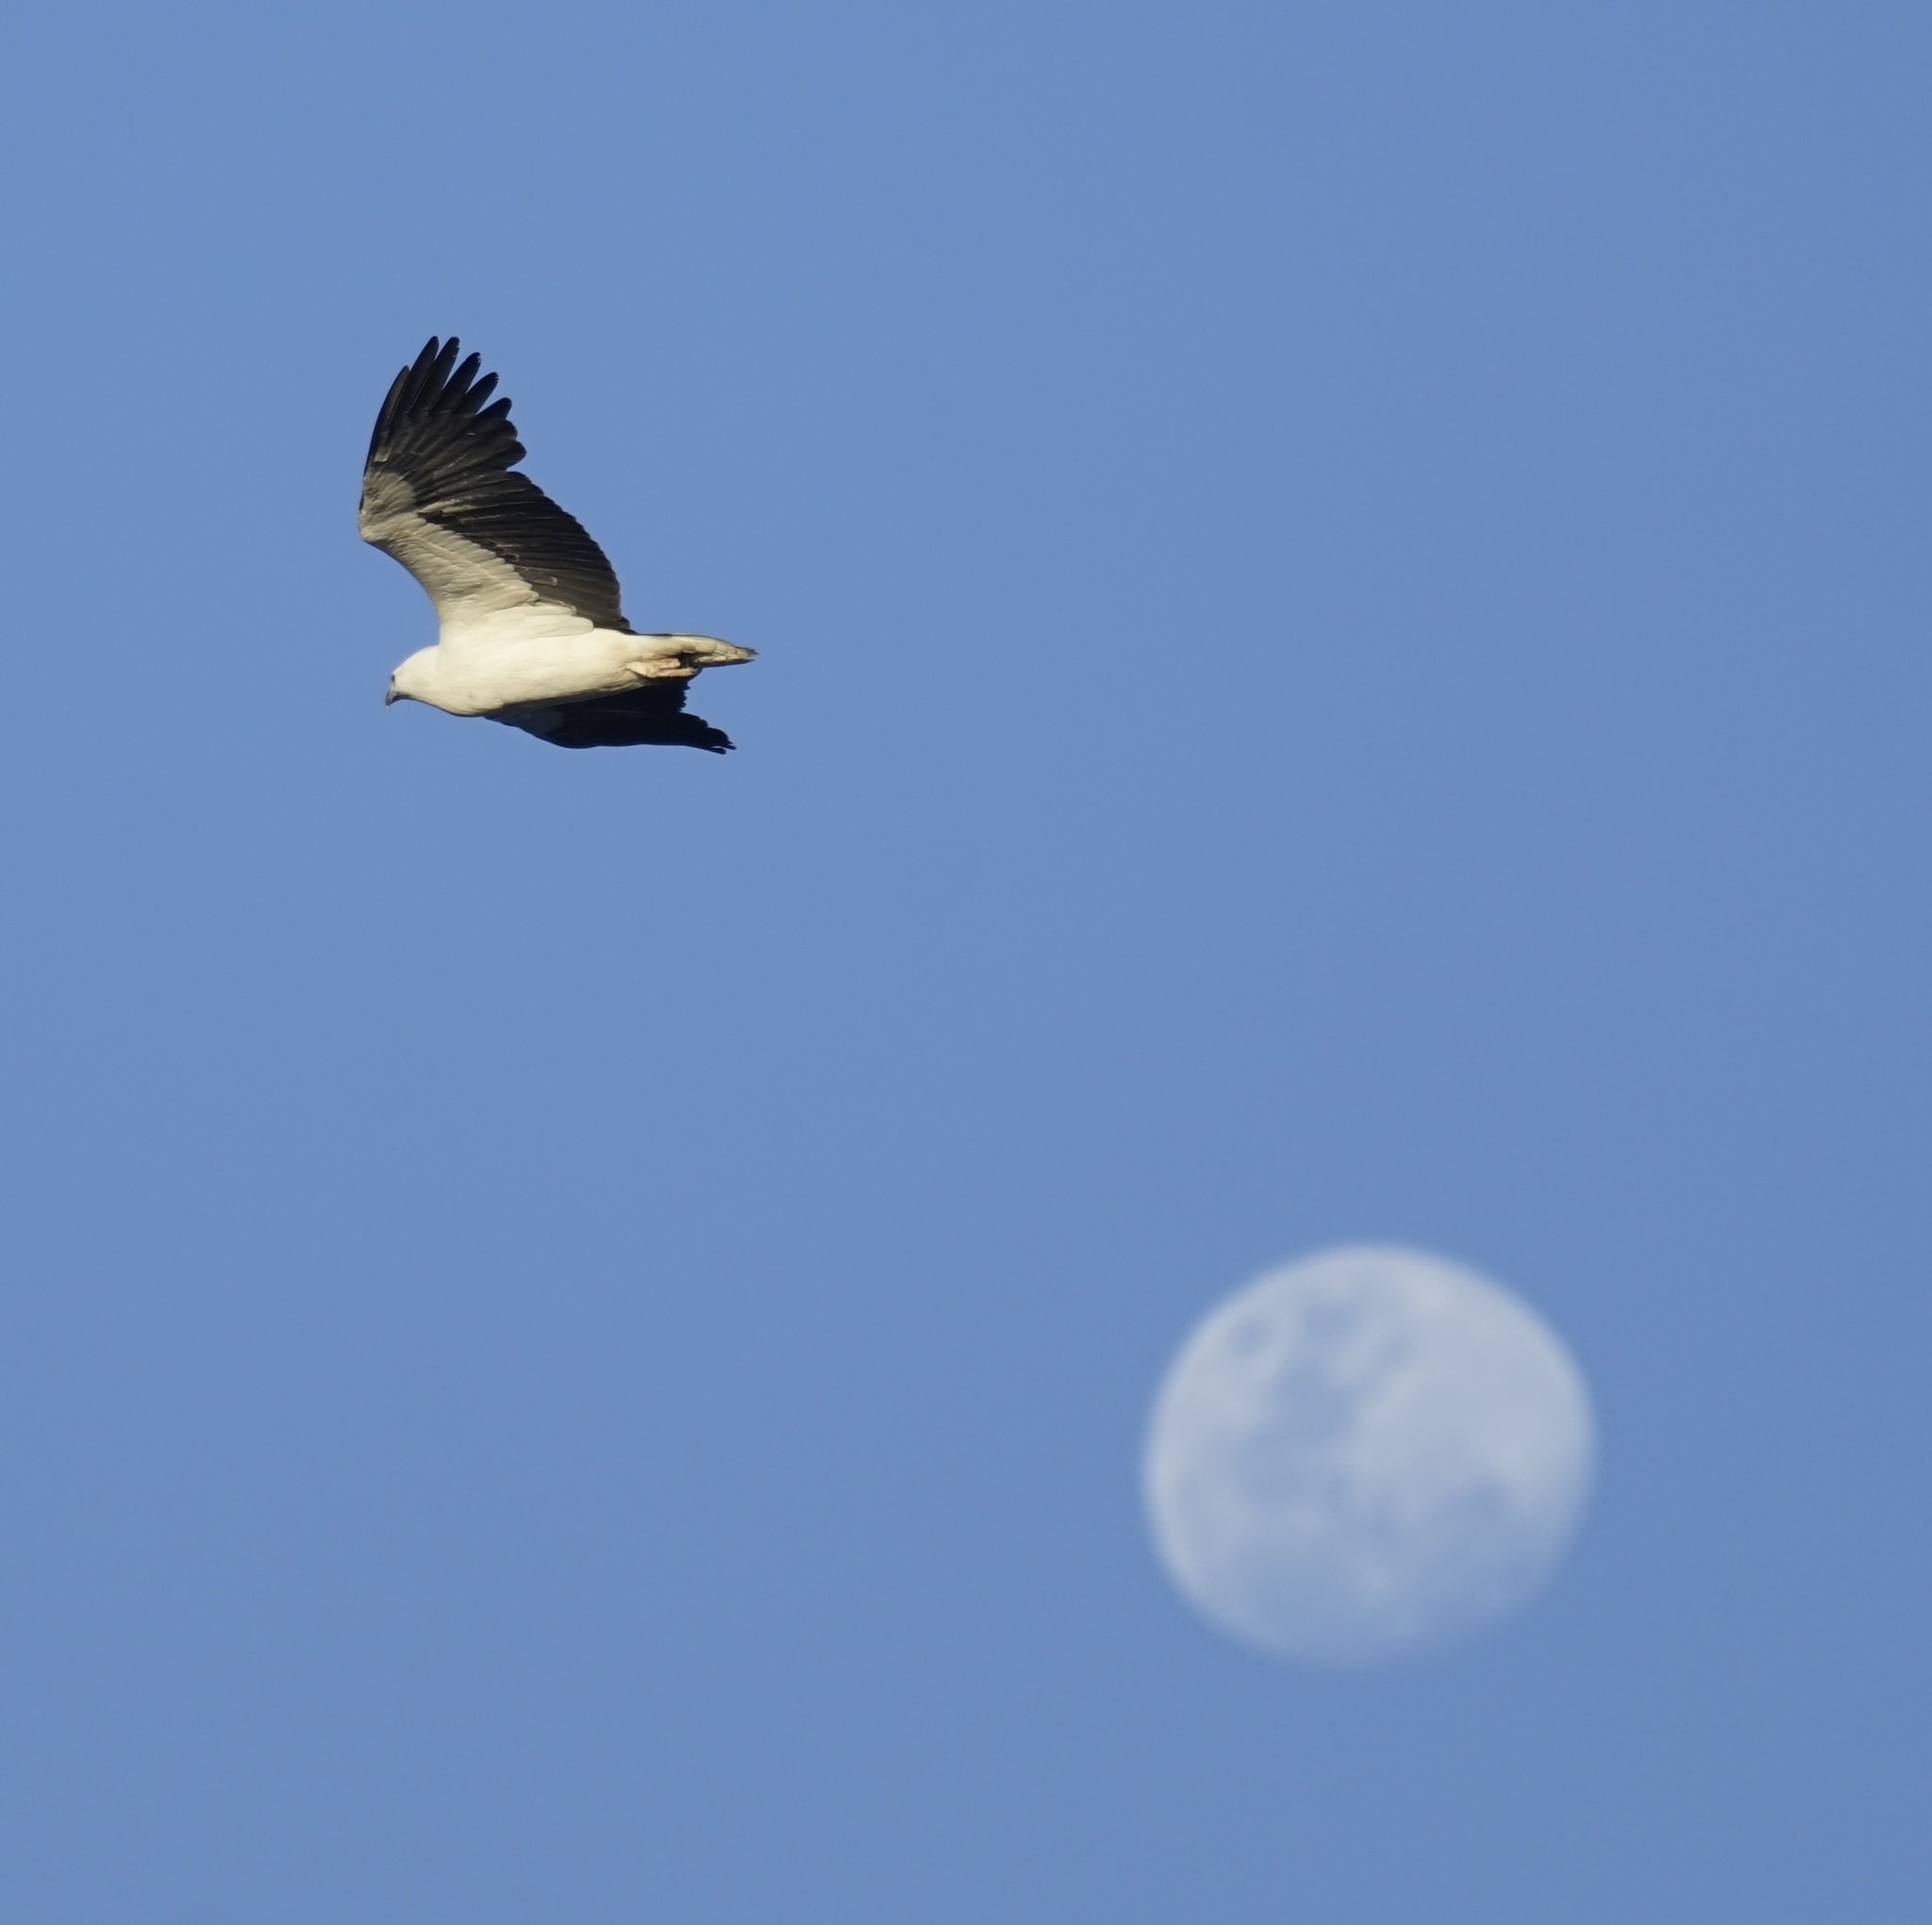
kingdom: Animalia
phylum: Chordata
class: Aves
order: Accipitriformes
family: Accipitridae
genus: Haliaeetus
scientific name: Haliaeetus leucogaster
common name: White-bellied sea eagle
